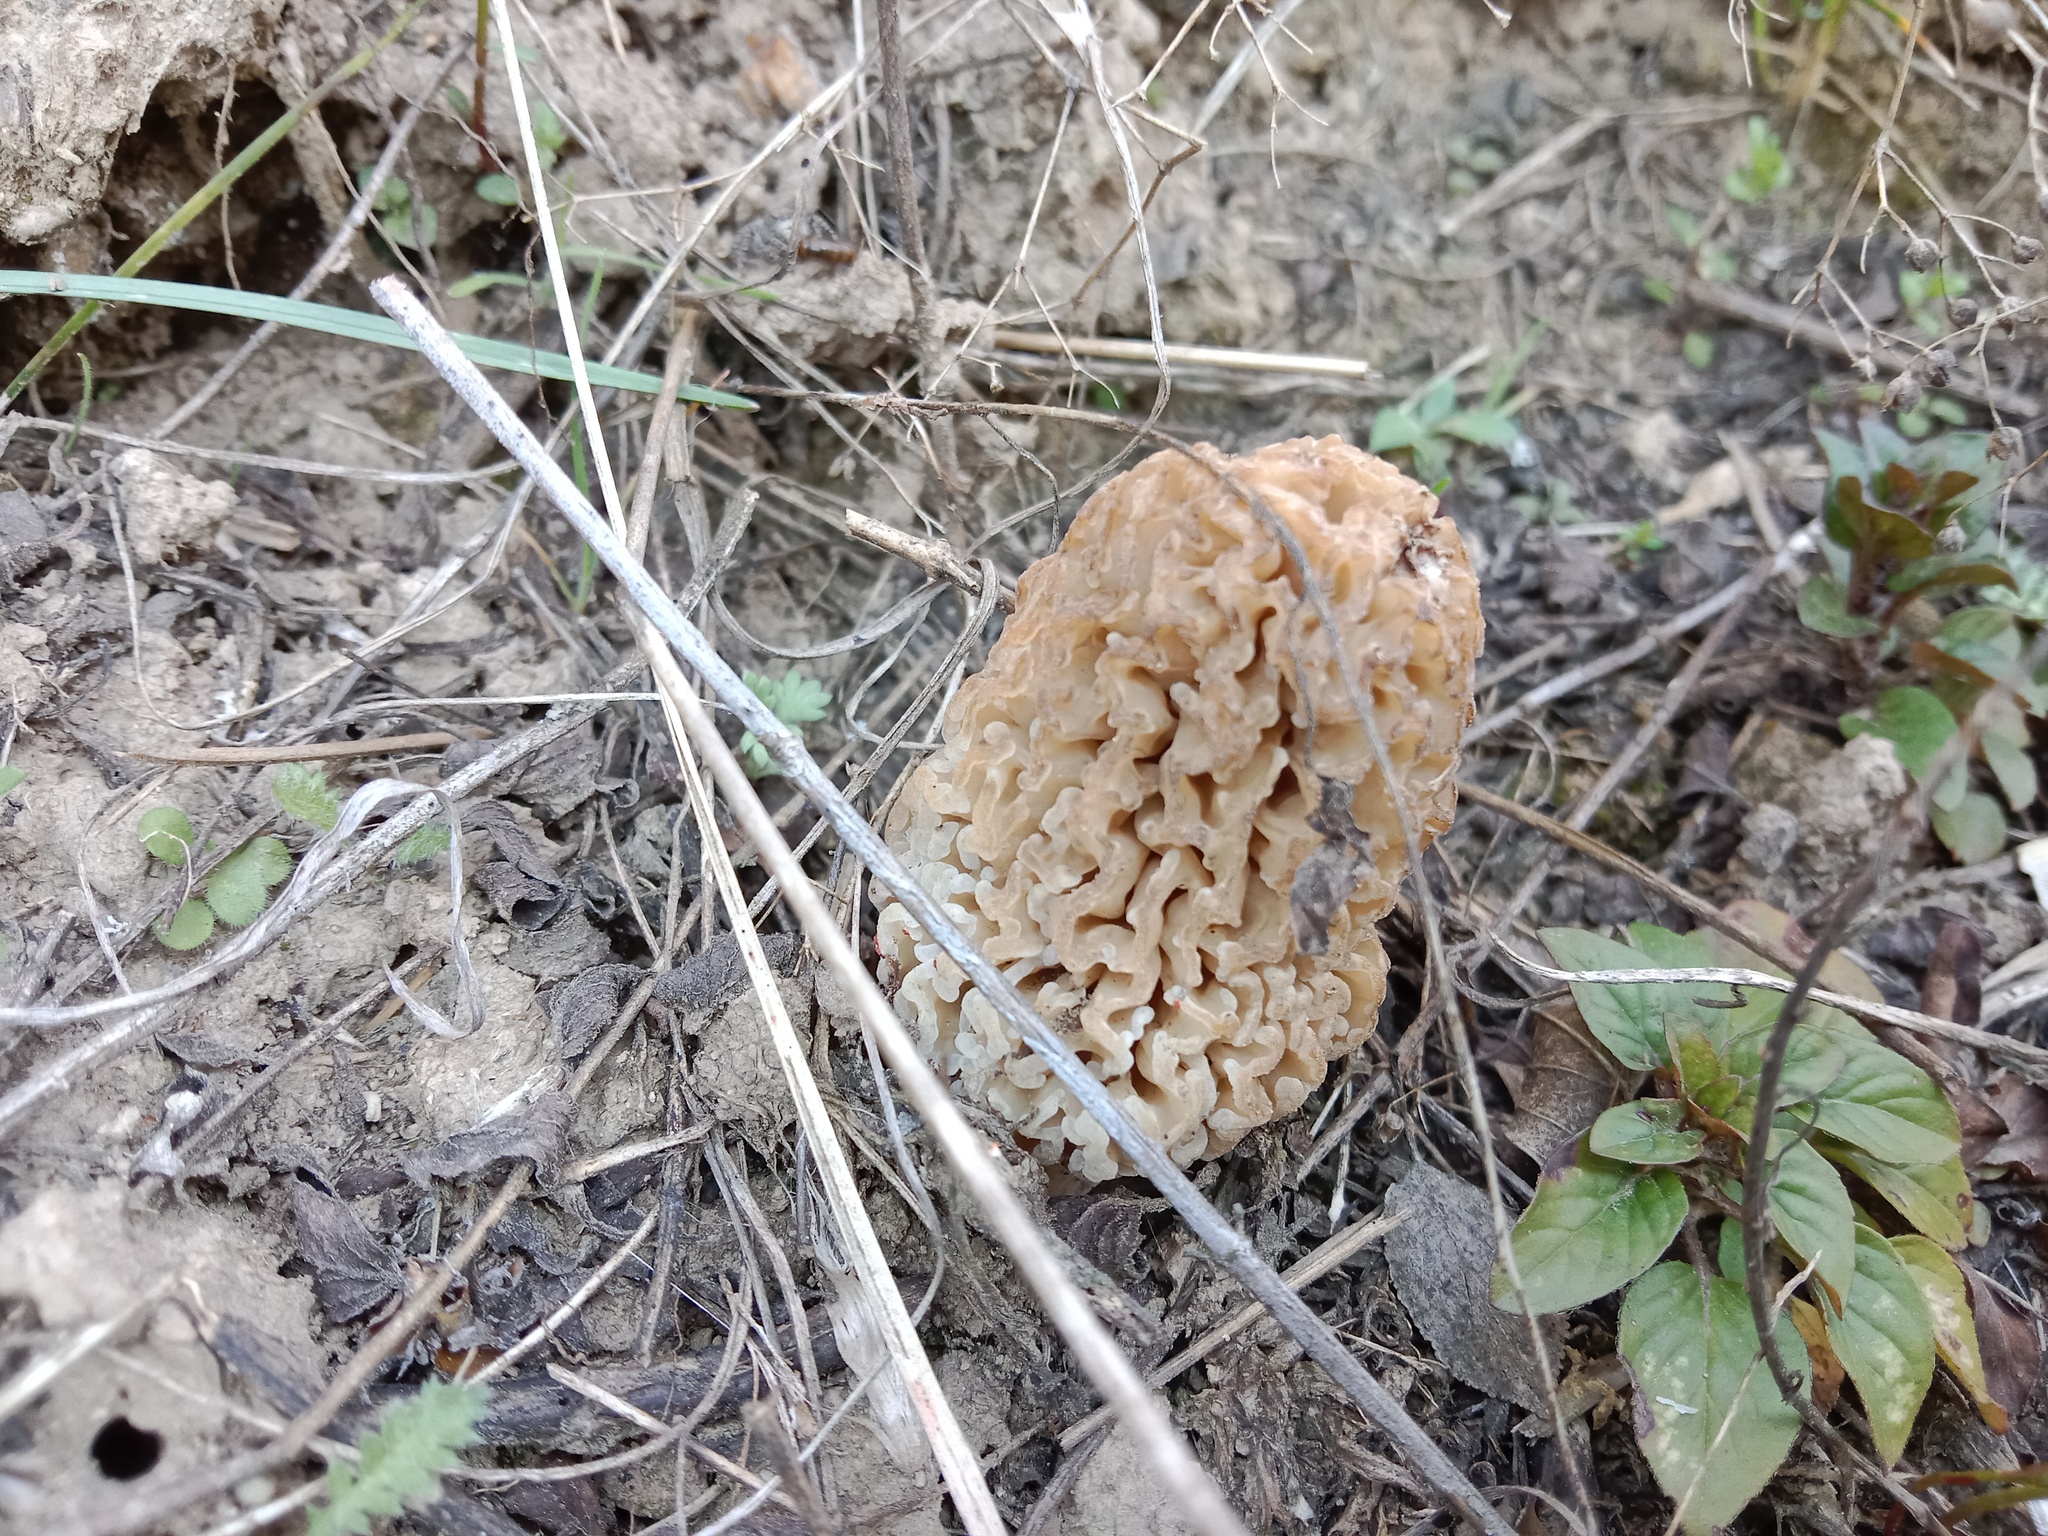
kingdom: Fungi
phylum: Ascomycota
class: Pezizomycetes
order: Pezizales
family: Morchellaceae
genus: Morchella
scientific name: Morchella steppicola
